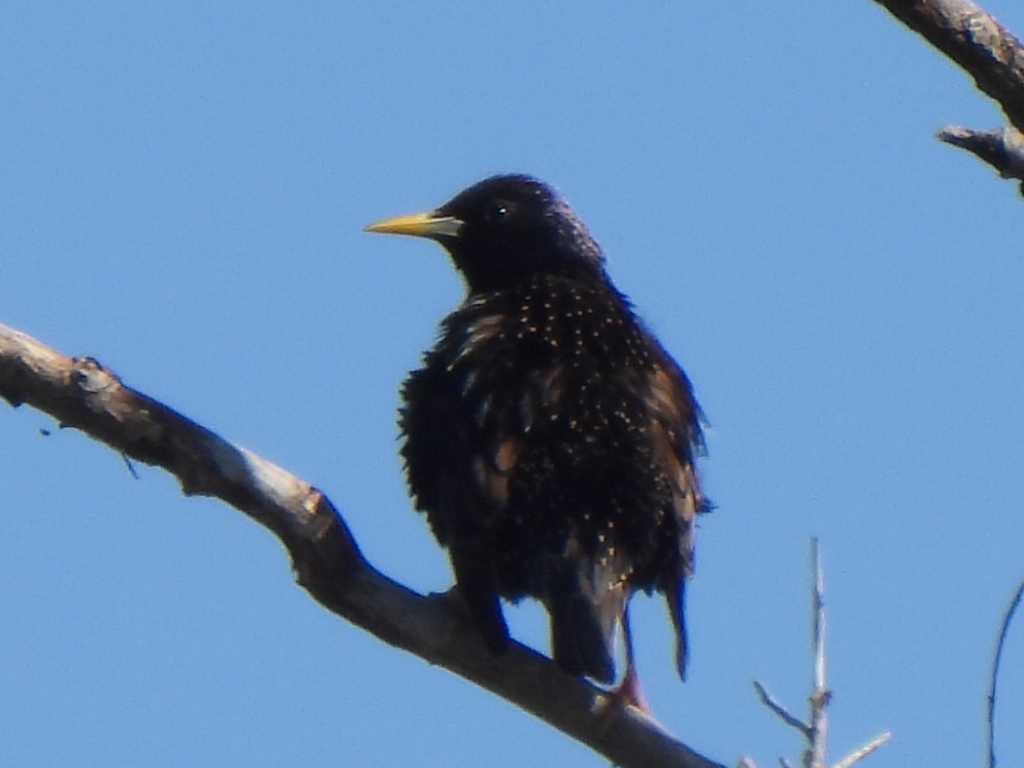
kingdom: Animalia
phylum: Chordata
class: Aves
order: Passeriformes
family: Sturnidae
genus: Sturnus
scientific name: Sturnus vulgaris
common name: Common starling
